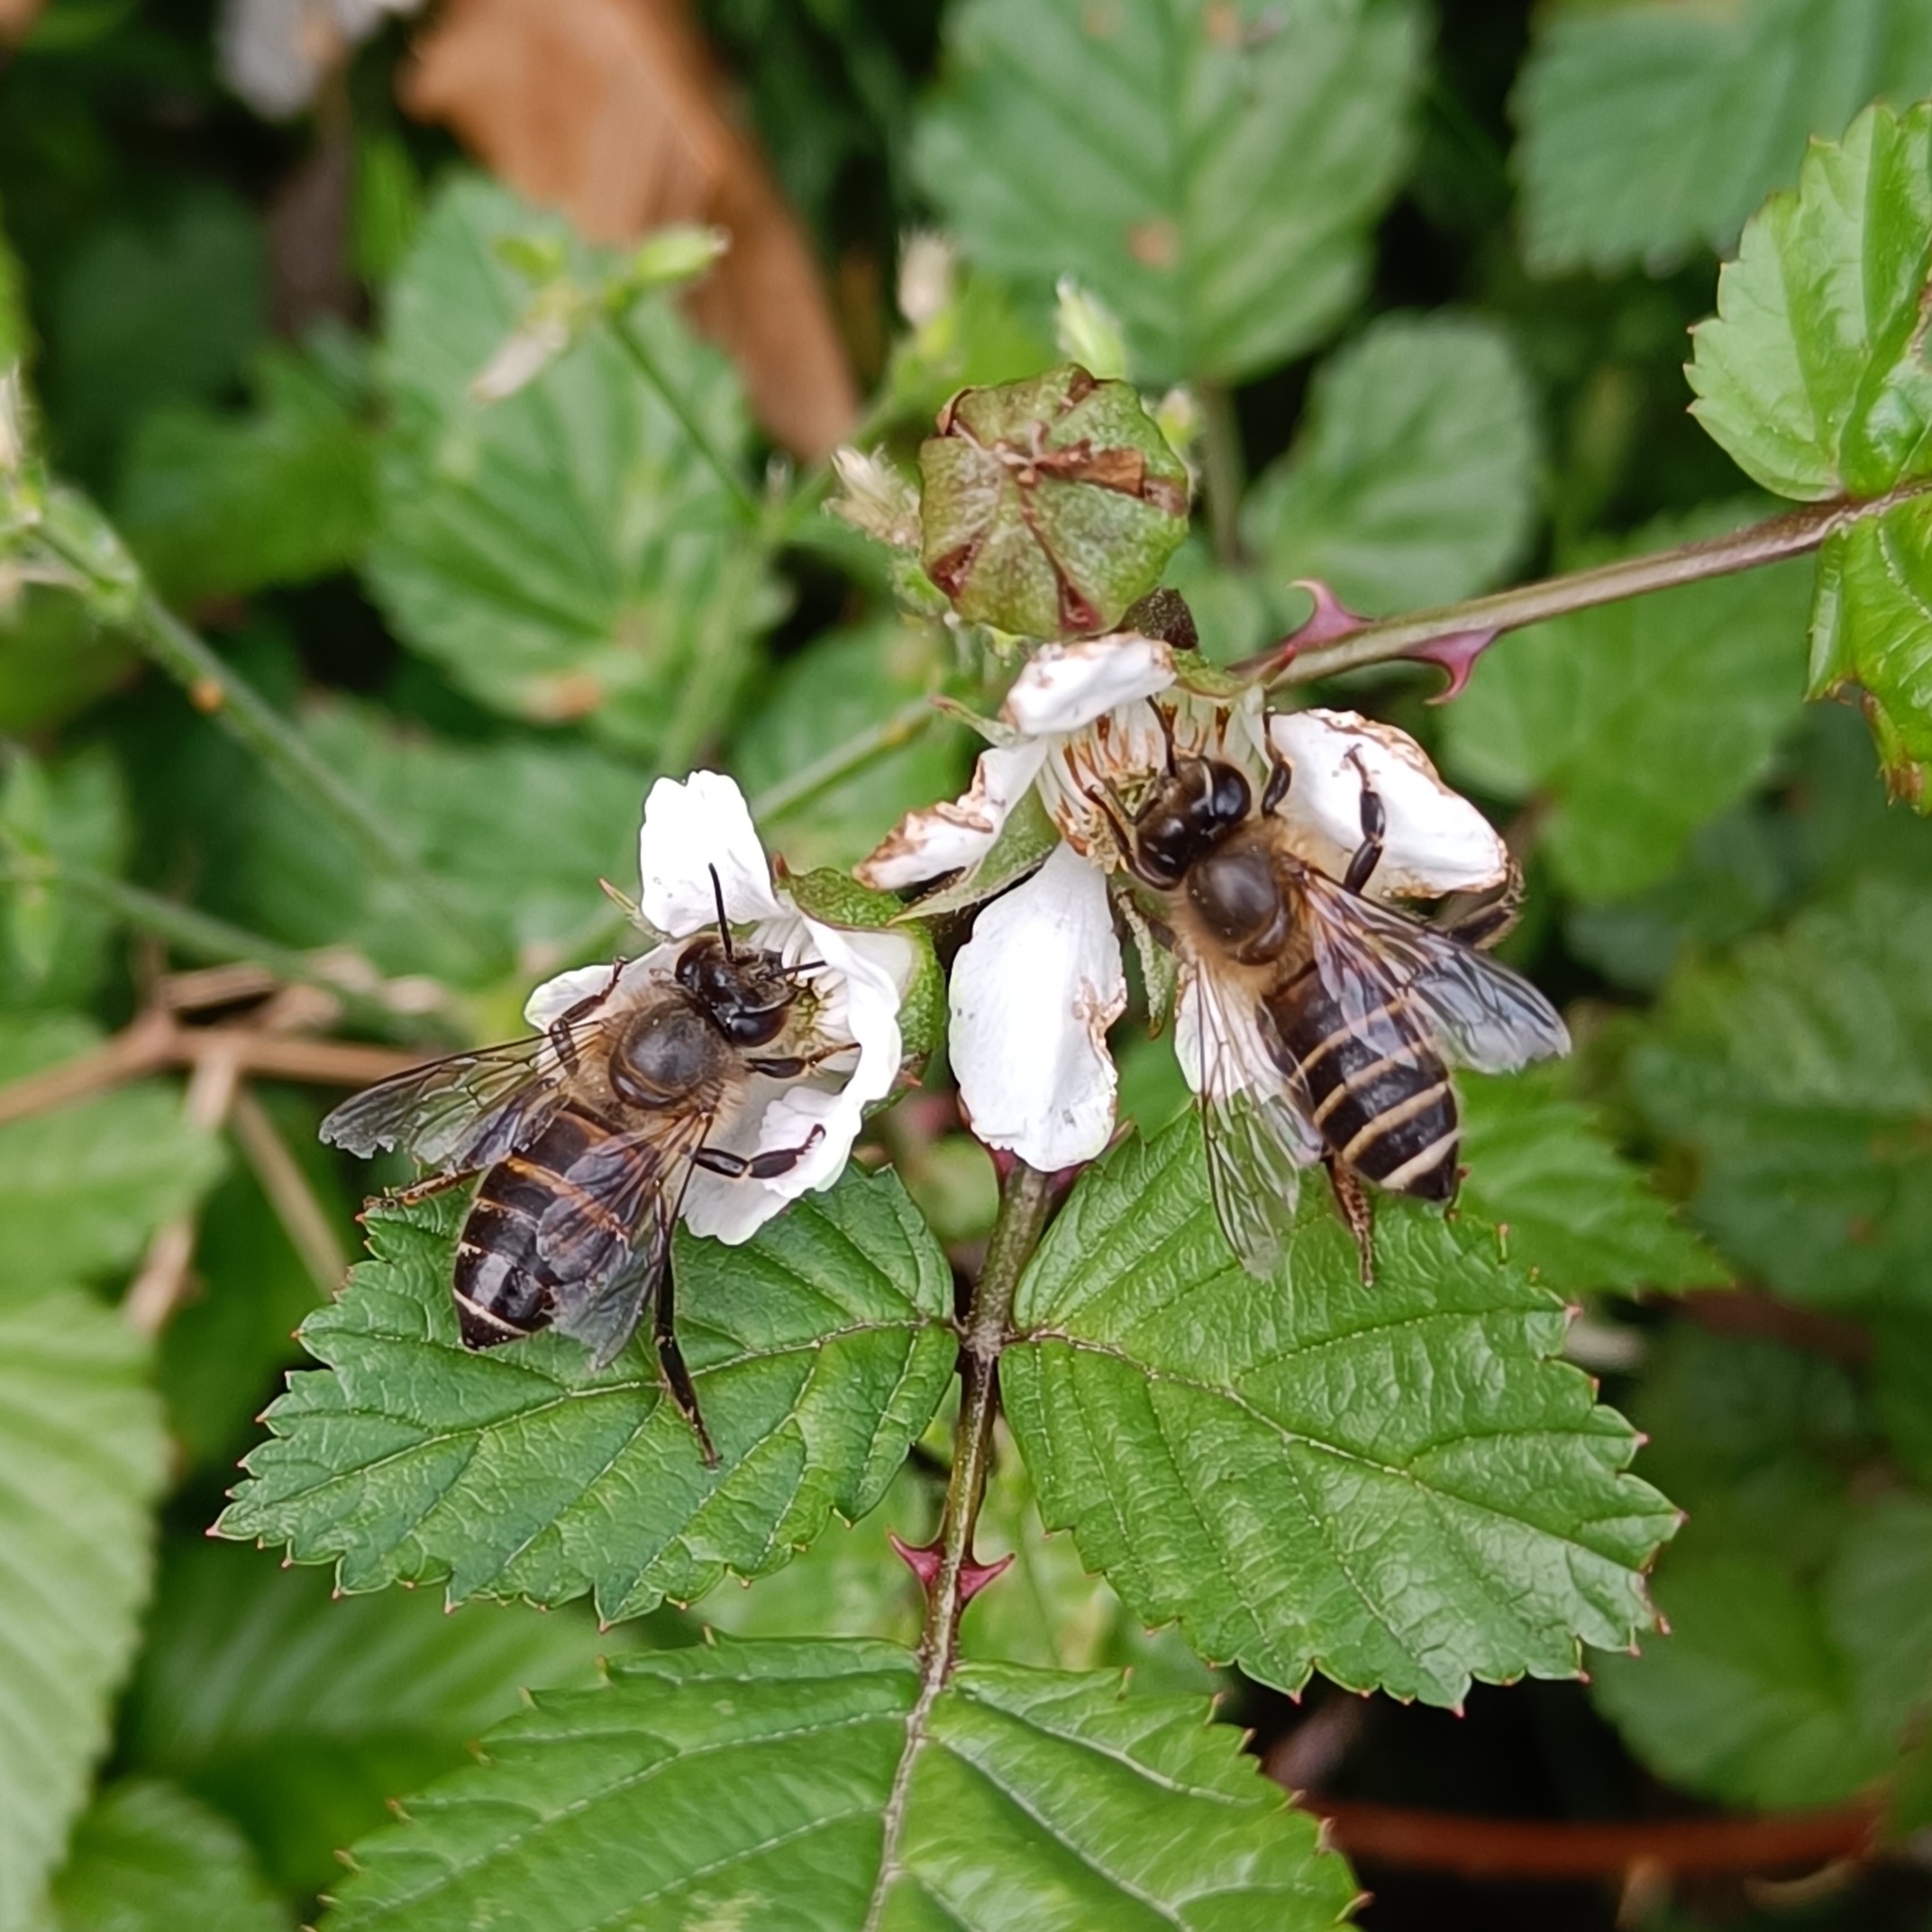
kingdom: Animalia
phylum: Arthropoda
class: Insecta
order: Hymenoptera
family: Apidae
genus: Apis
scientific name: Apis cerana
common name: Honey bee
